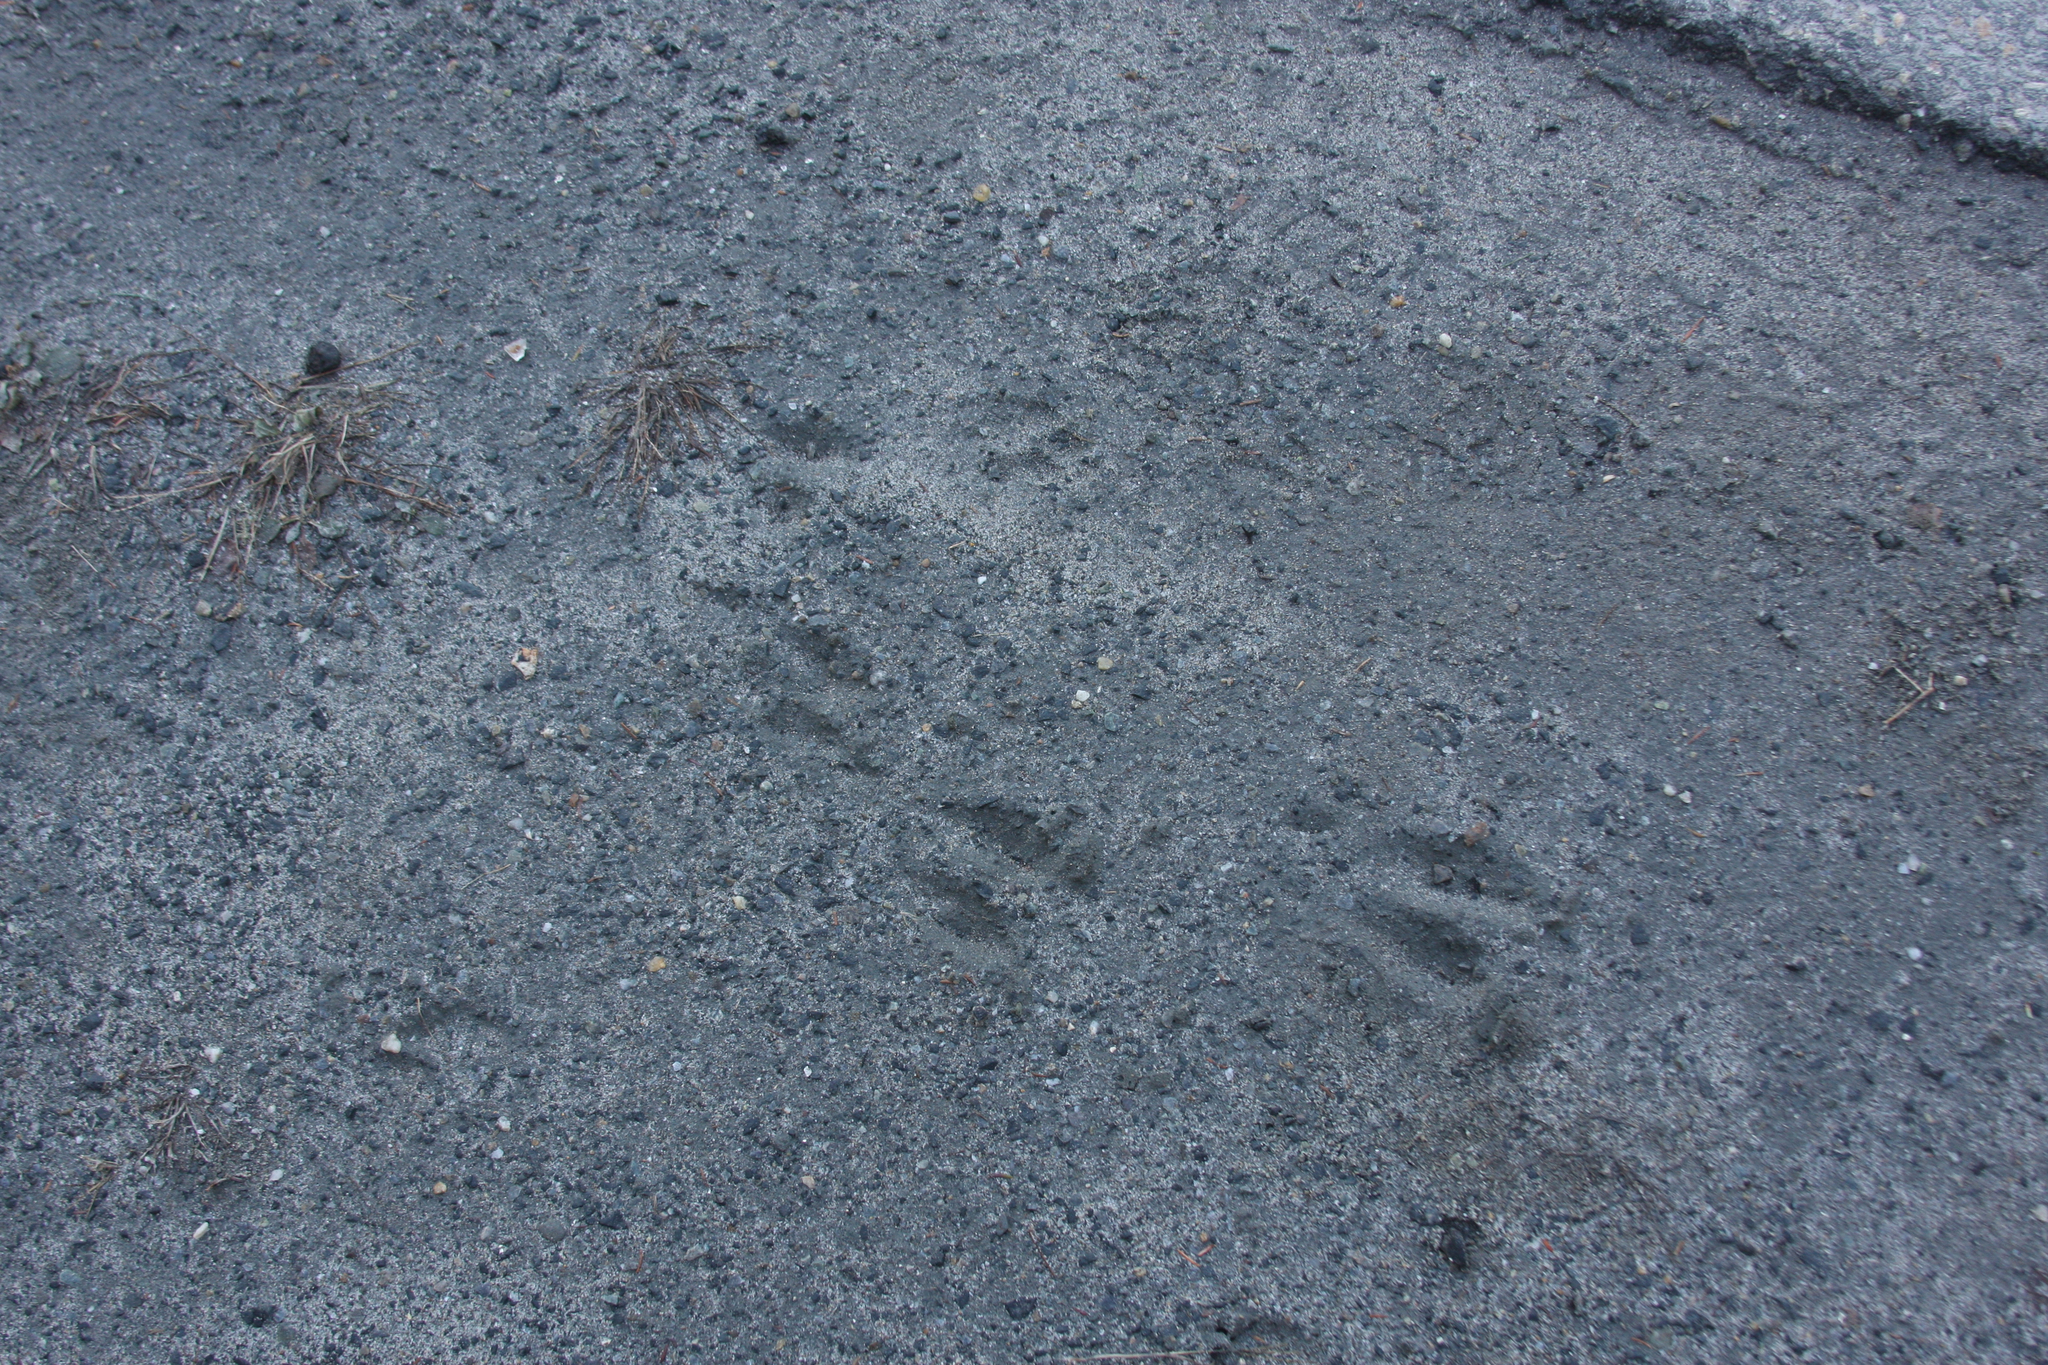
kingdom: Animalia
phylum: Chordata
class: Mammalia
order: Artiodactyla
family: Cervidae
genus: Odocoileus
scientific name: Odocoileus virginianus
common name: White-tailed deer
